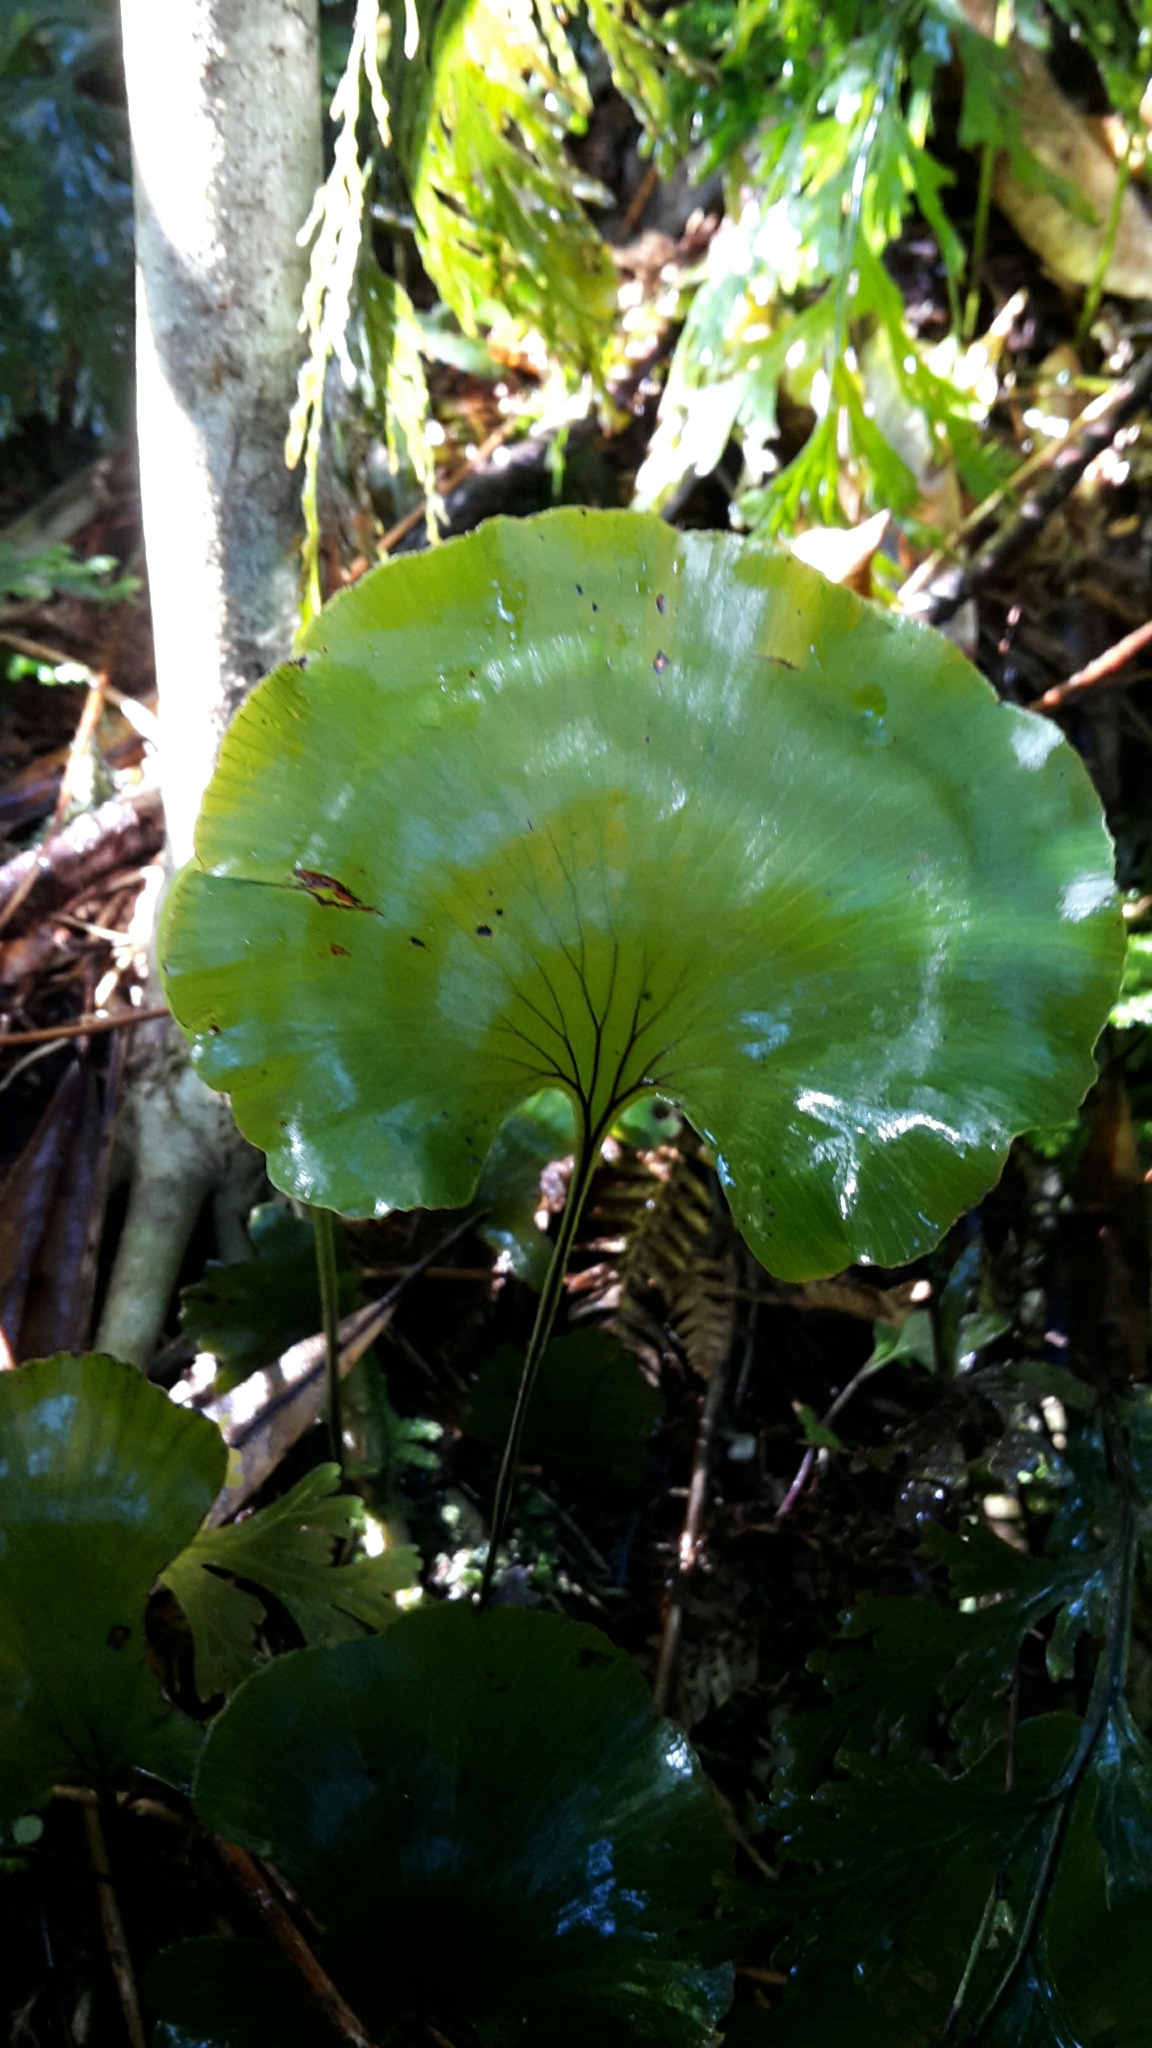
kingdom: Plantae
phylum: Tracheophyta
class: Polypodiopsida
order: Hymenophyllales
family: Hymenophyllaceae
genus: Hymenophyllum
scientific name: Hymenophyllum nephrophyllum
